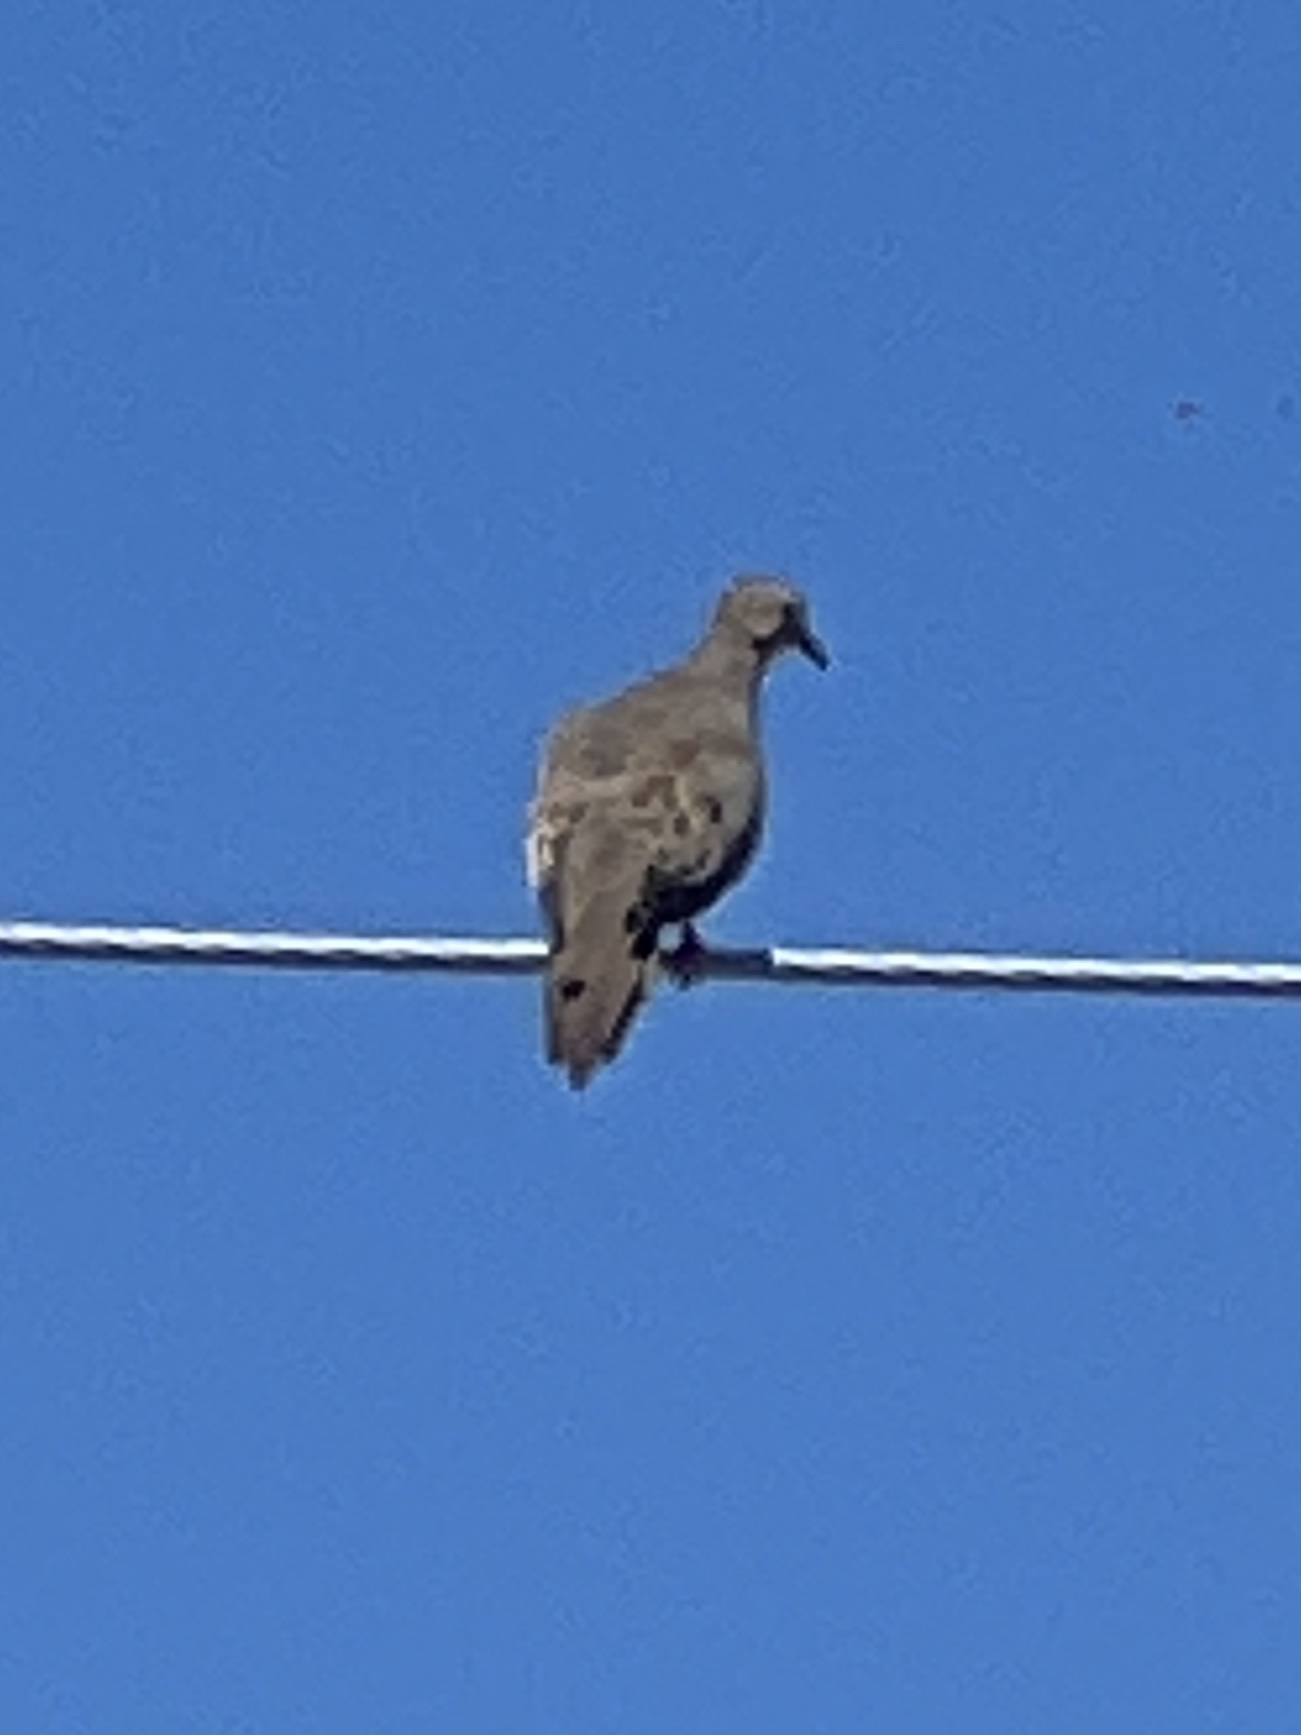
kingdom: Animalia
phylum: Chordata
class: Aves
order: Columbiformes
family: Columbidae
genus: Zenaida
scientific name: Zenaida macroura
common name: Mourning dove
